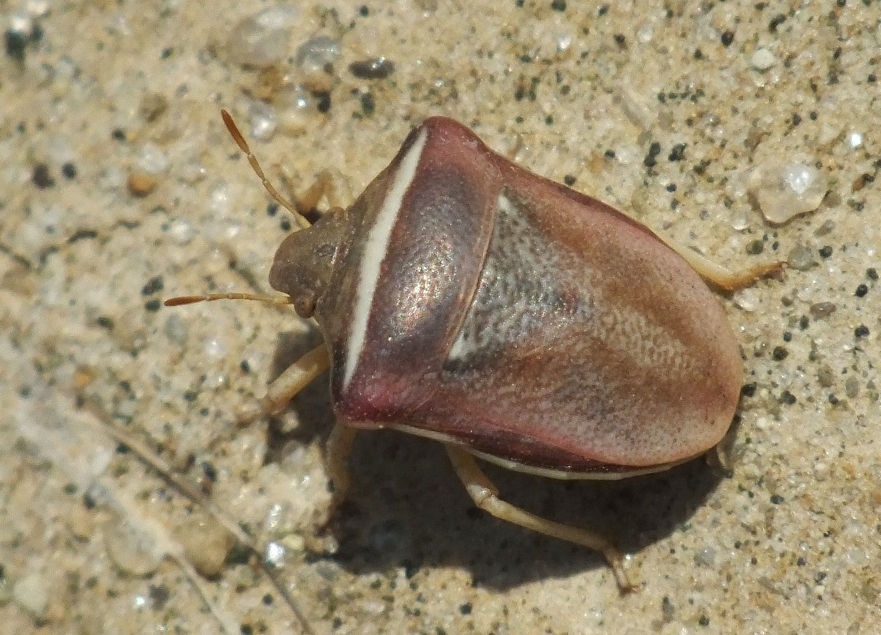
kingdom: Animalia
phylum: Arthropoda
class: Insecta
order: Hemiptera
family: Pentatomidae
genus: Ventocoris
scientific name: Ventocoris halophilum
